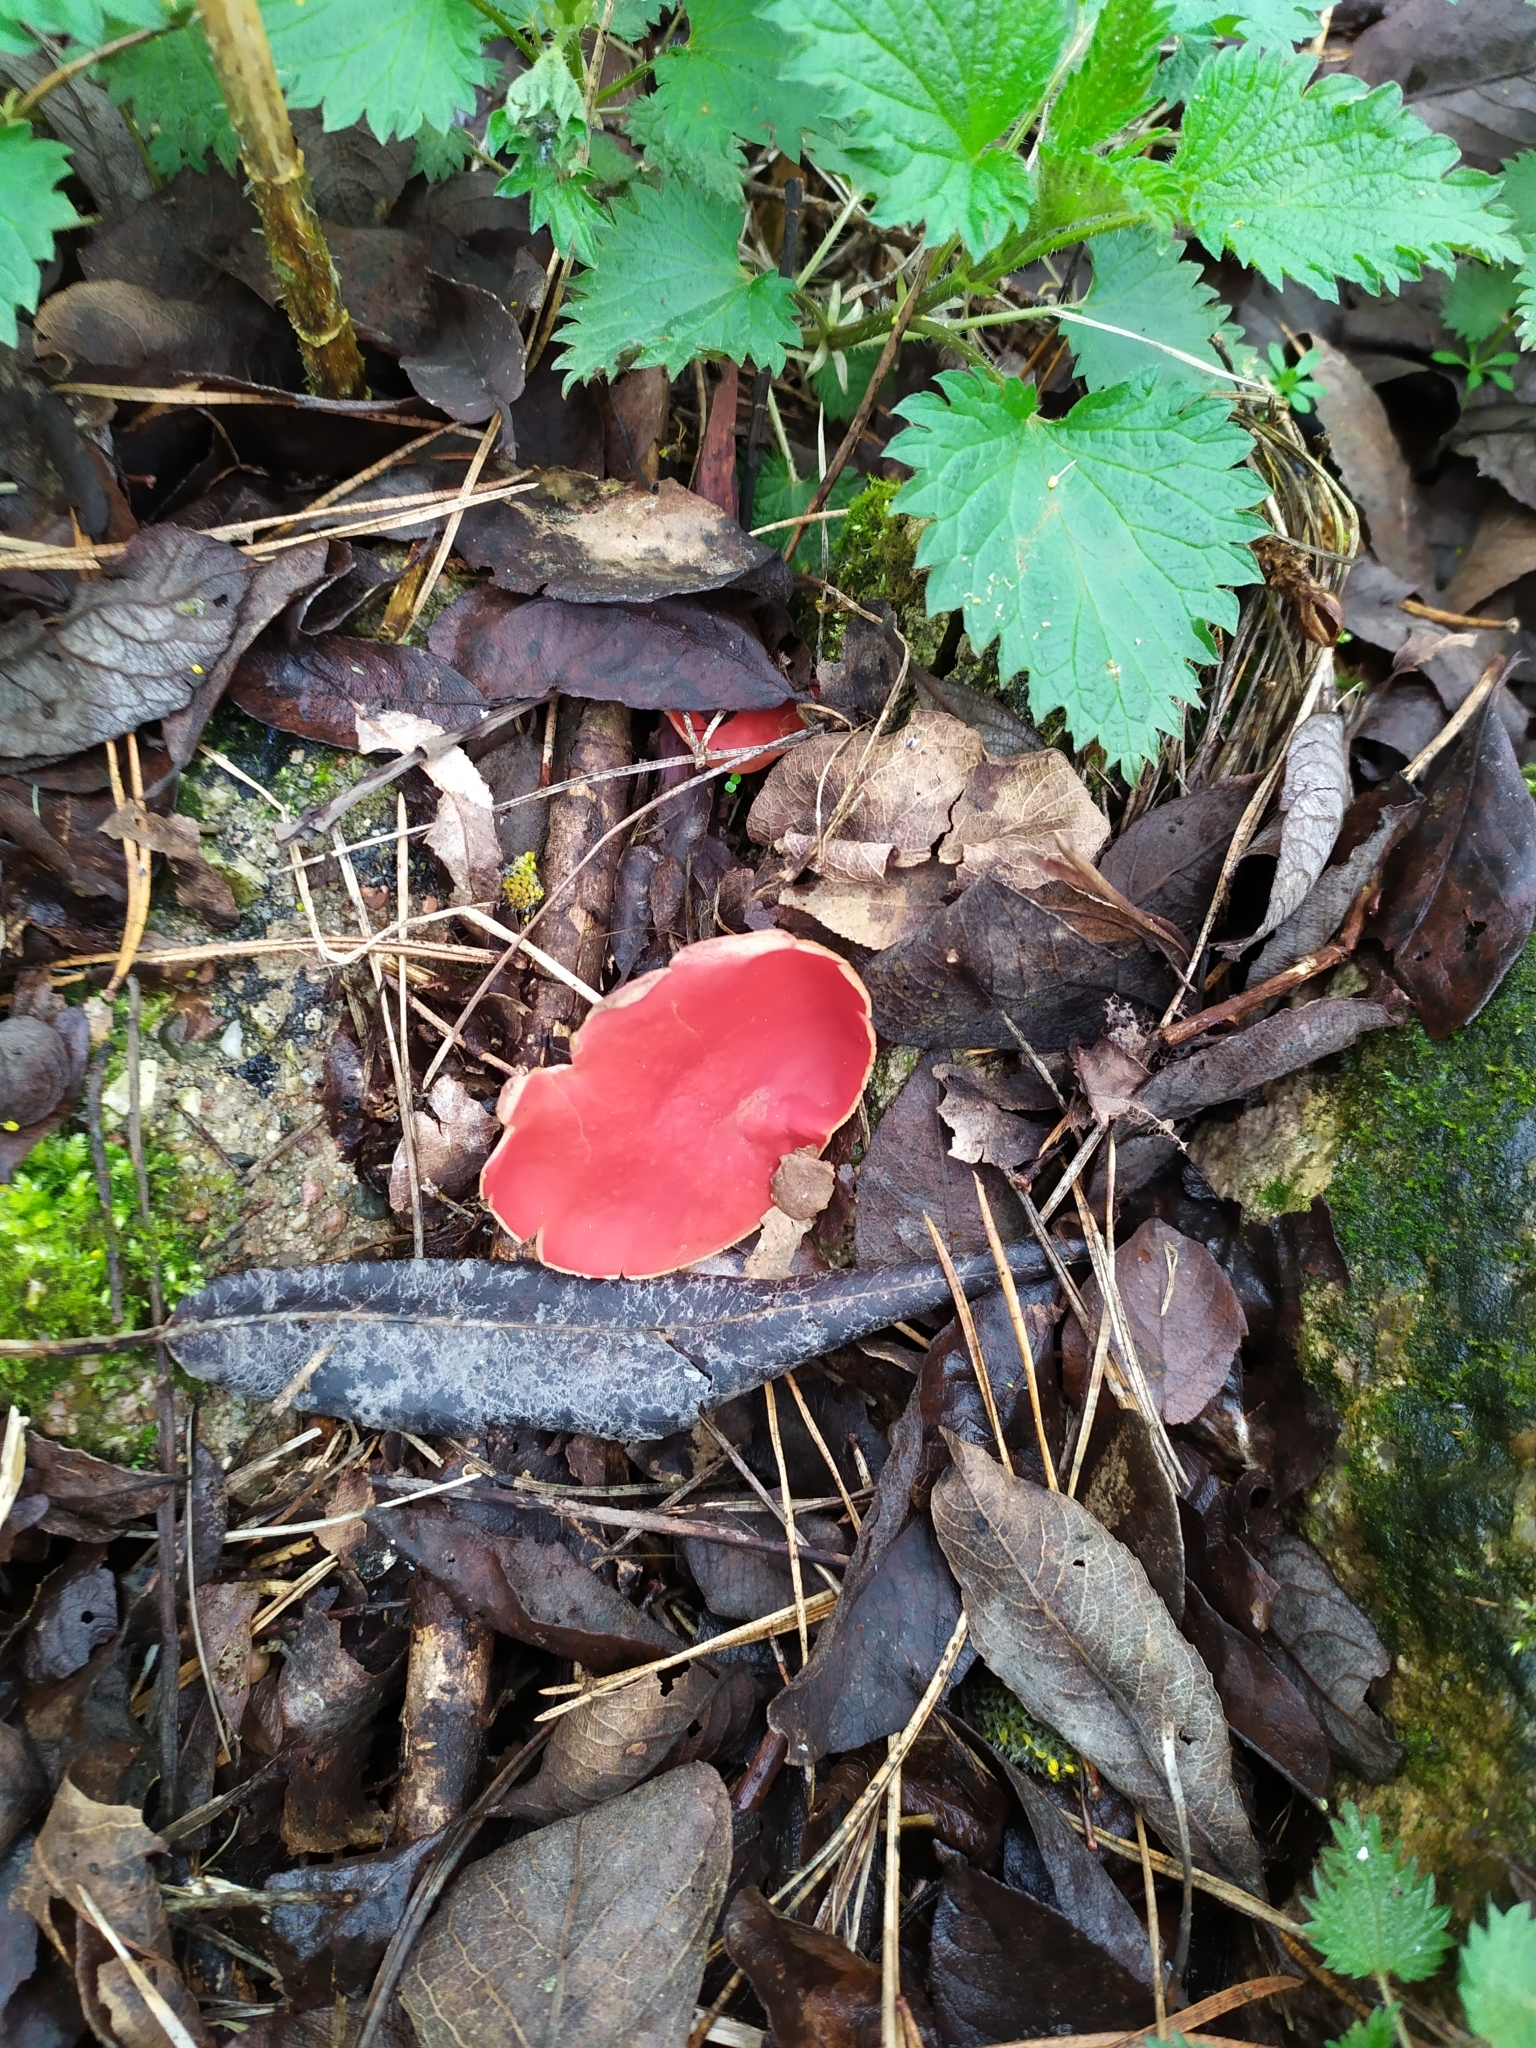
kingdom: Fungi
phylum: Ascomycota
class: Pezizomycetes
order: Pezizales
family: Sarcoscyphaceae
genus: Sarcoscypha
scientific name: Sarcoscypha
